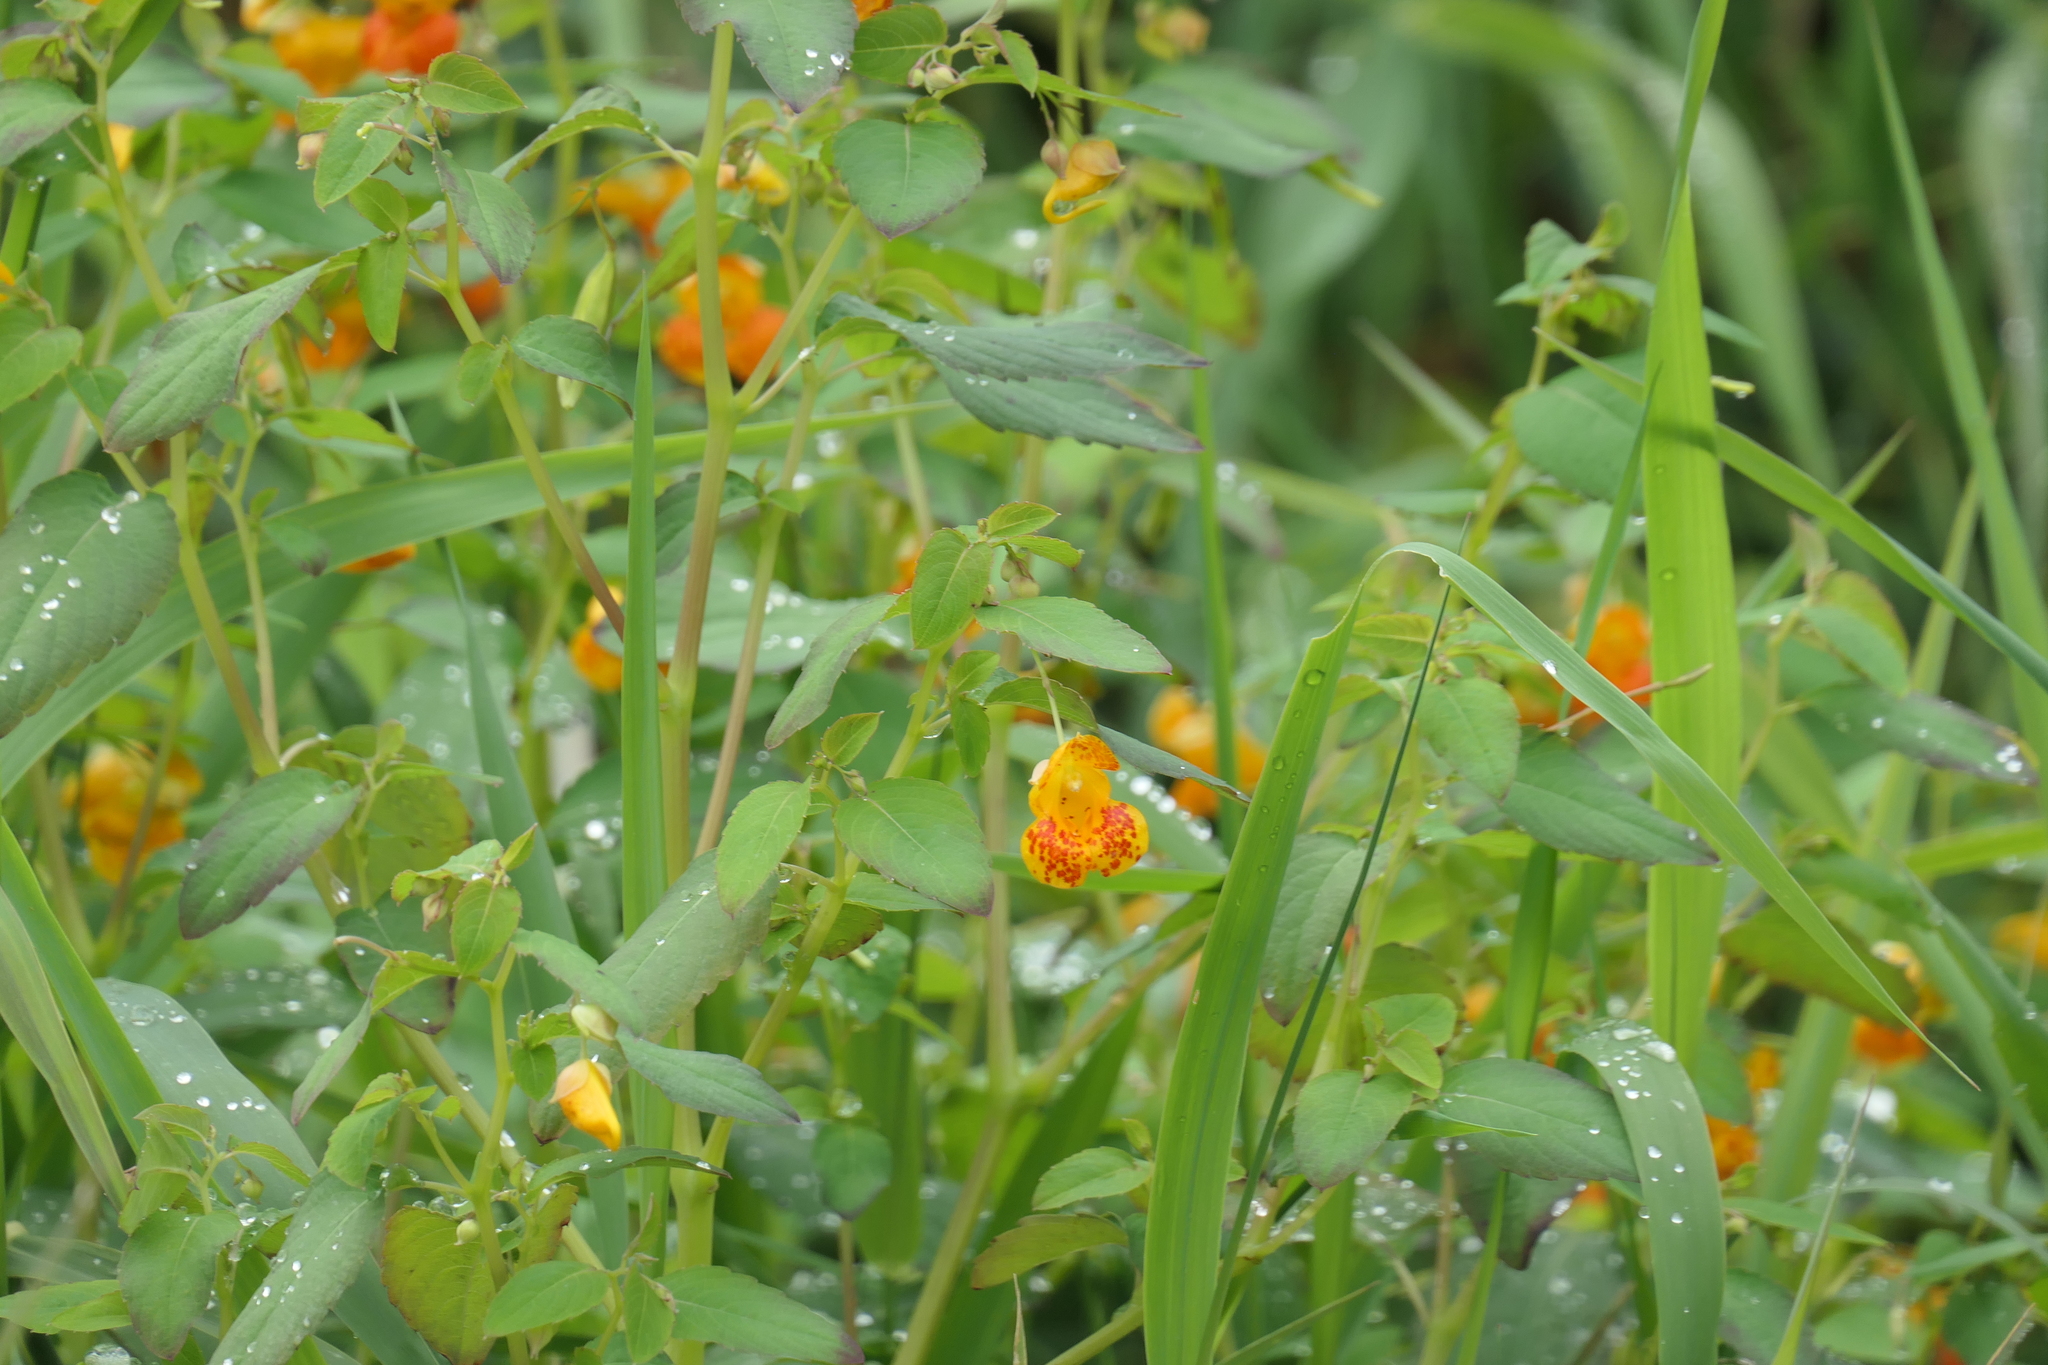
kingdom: Plantae
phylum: Tracheophyta
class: Magnoliopsida
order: Ericales
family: Balsaminaceae
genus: Impatiens
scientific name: Impatiens capensis
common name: Orange balsam
